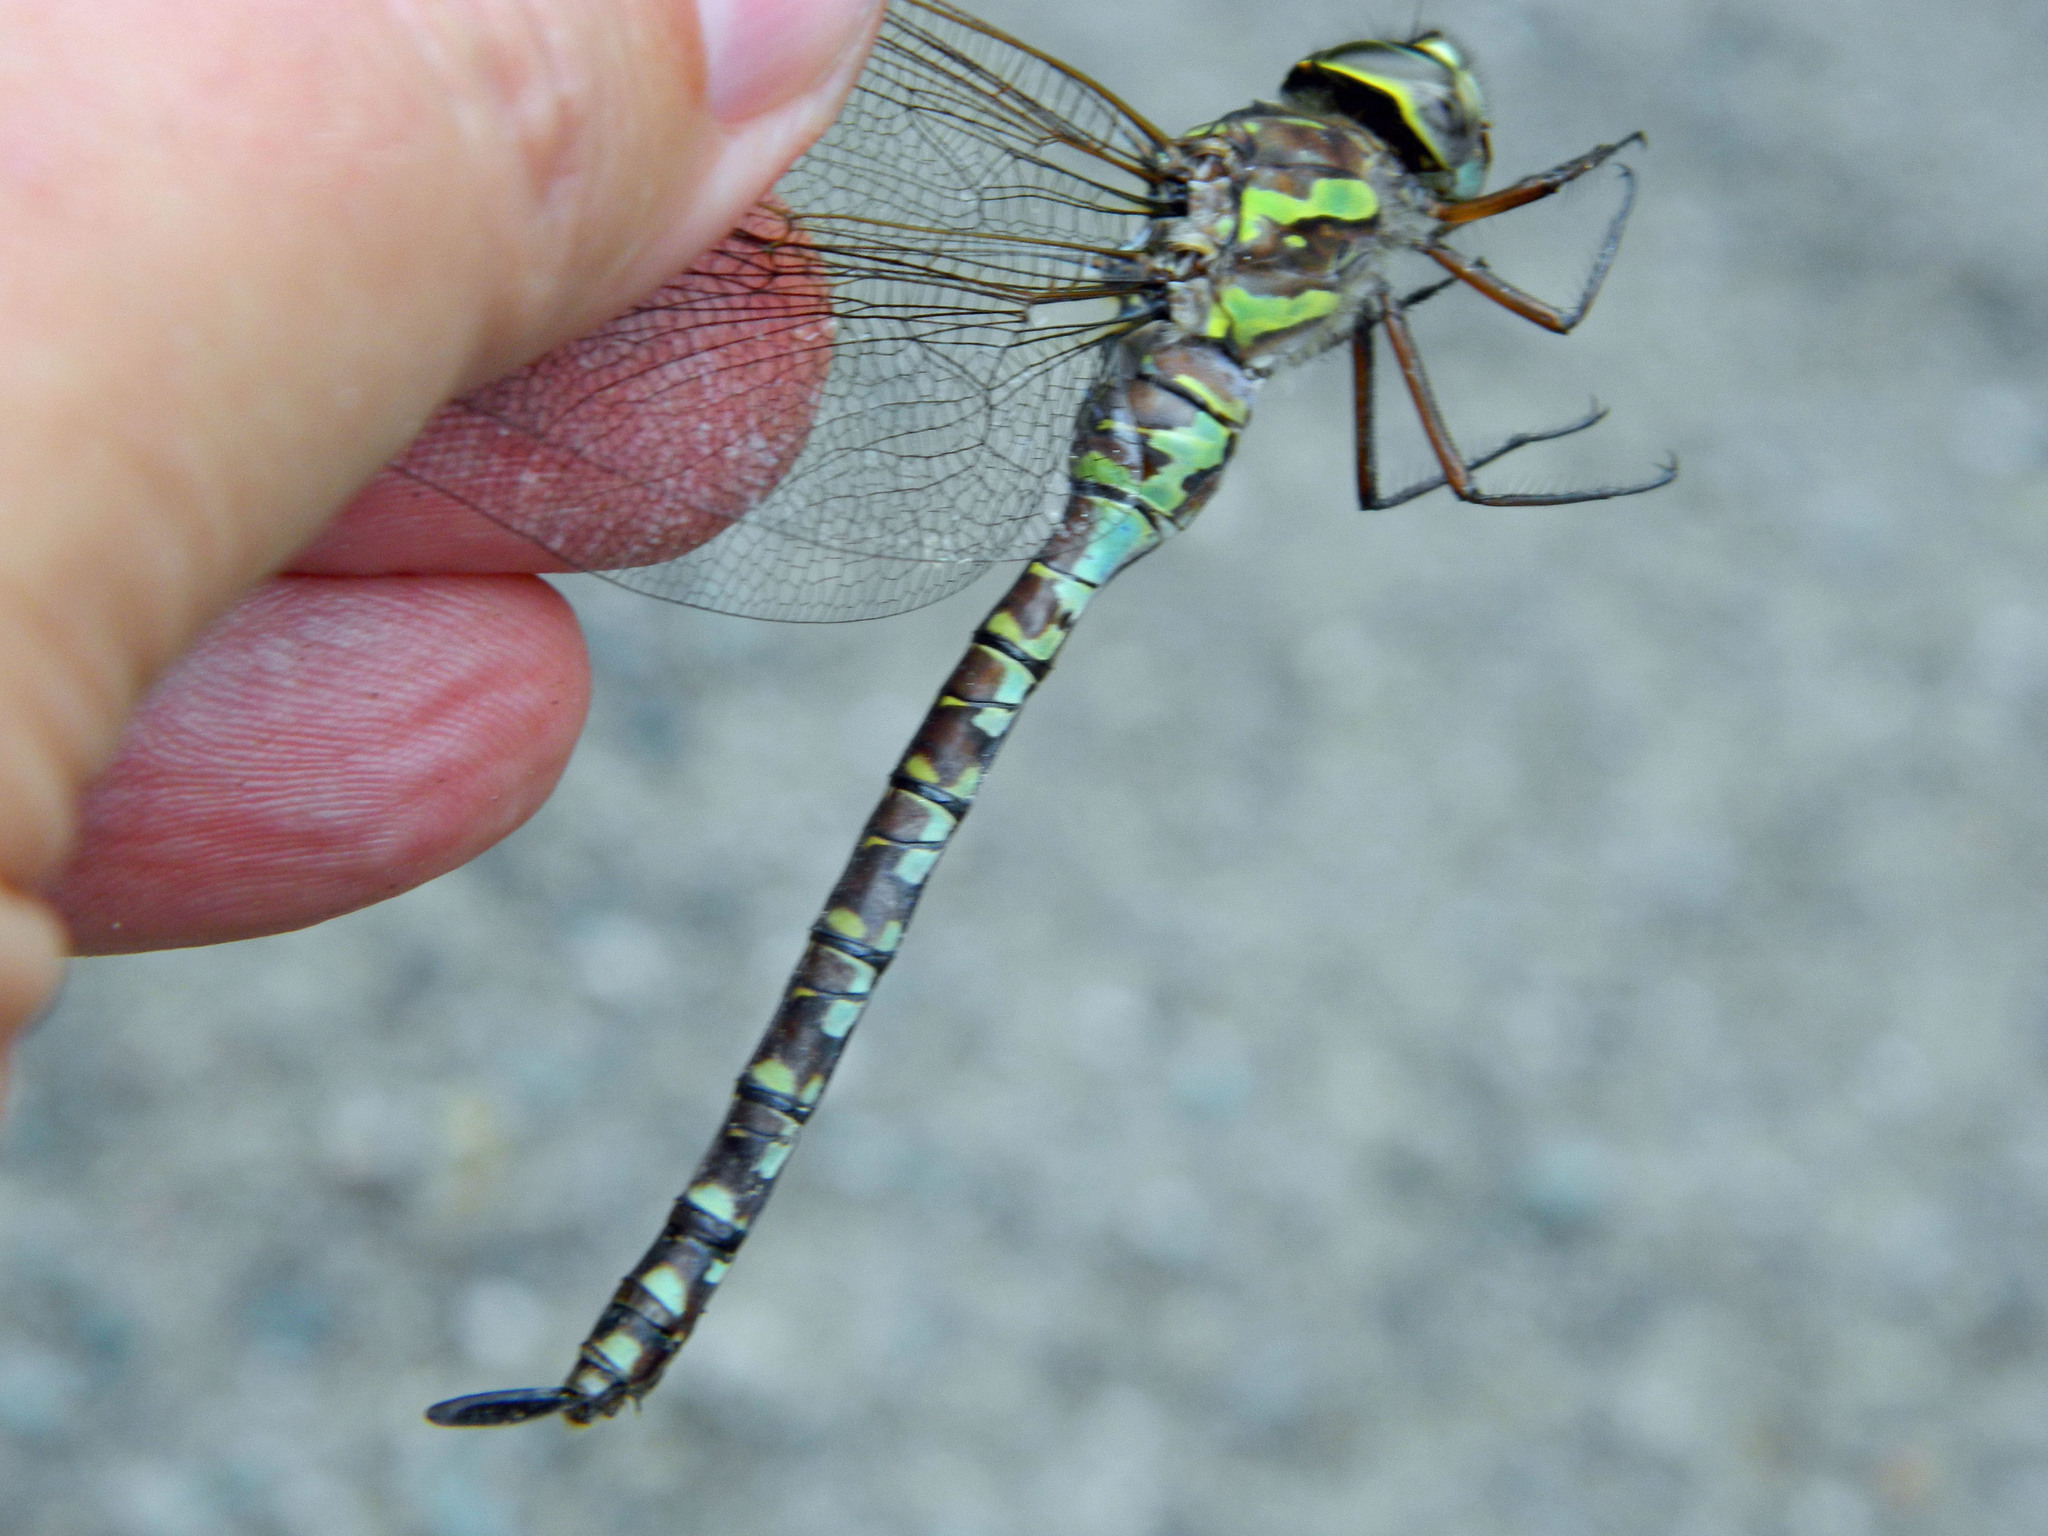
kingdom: Animalia
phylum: Arthropoda
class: Insecta
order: Odonata
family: Aeshnidae
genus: Aeshna
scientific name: Aeshna canadensis
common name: Canada darner
